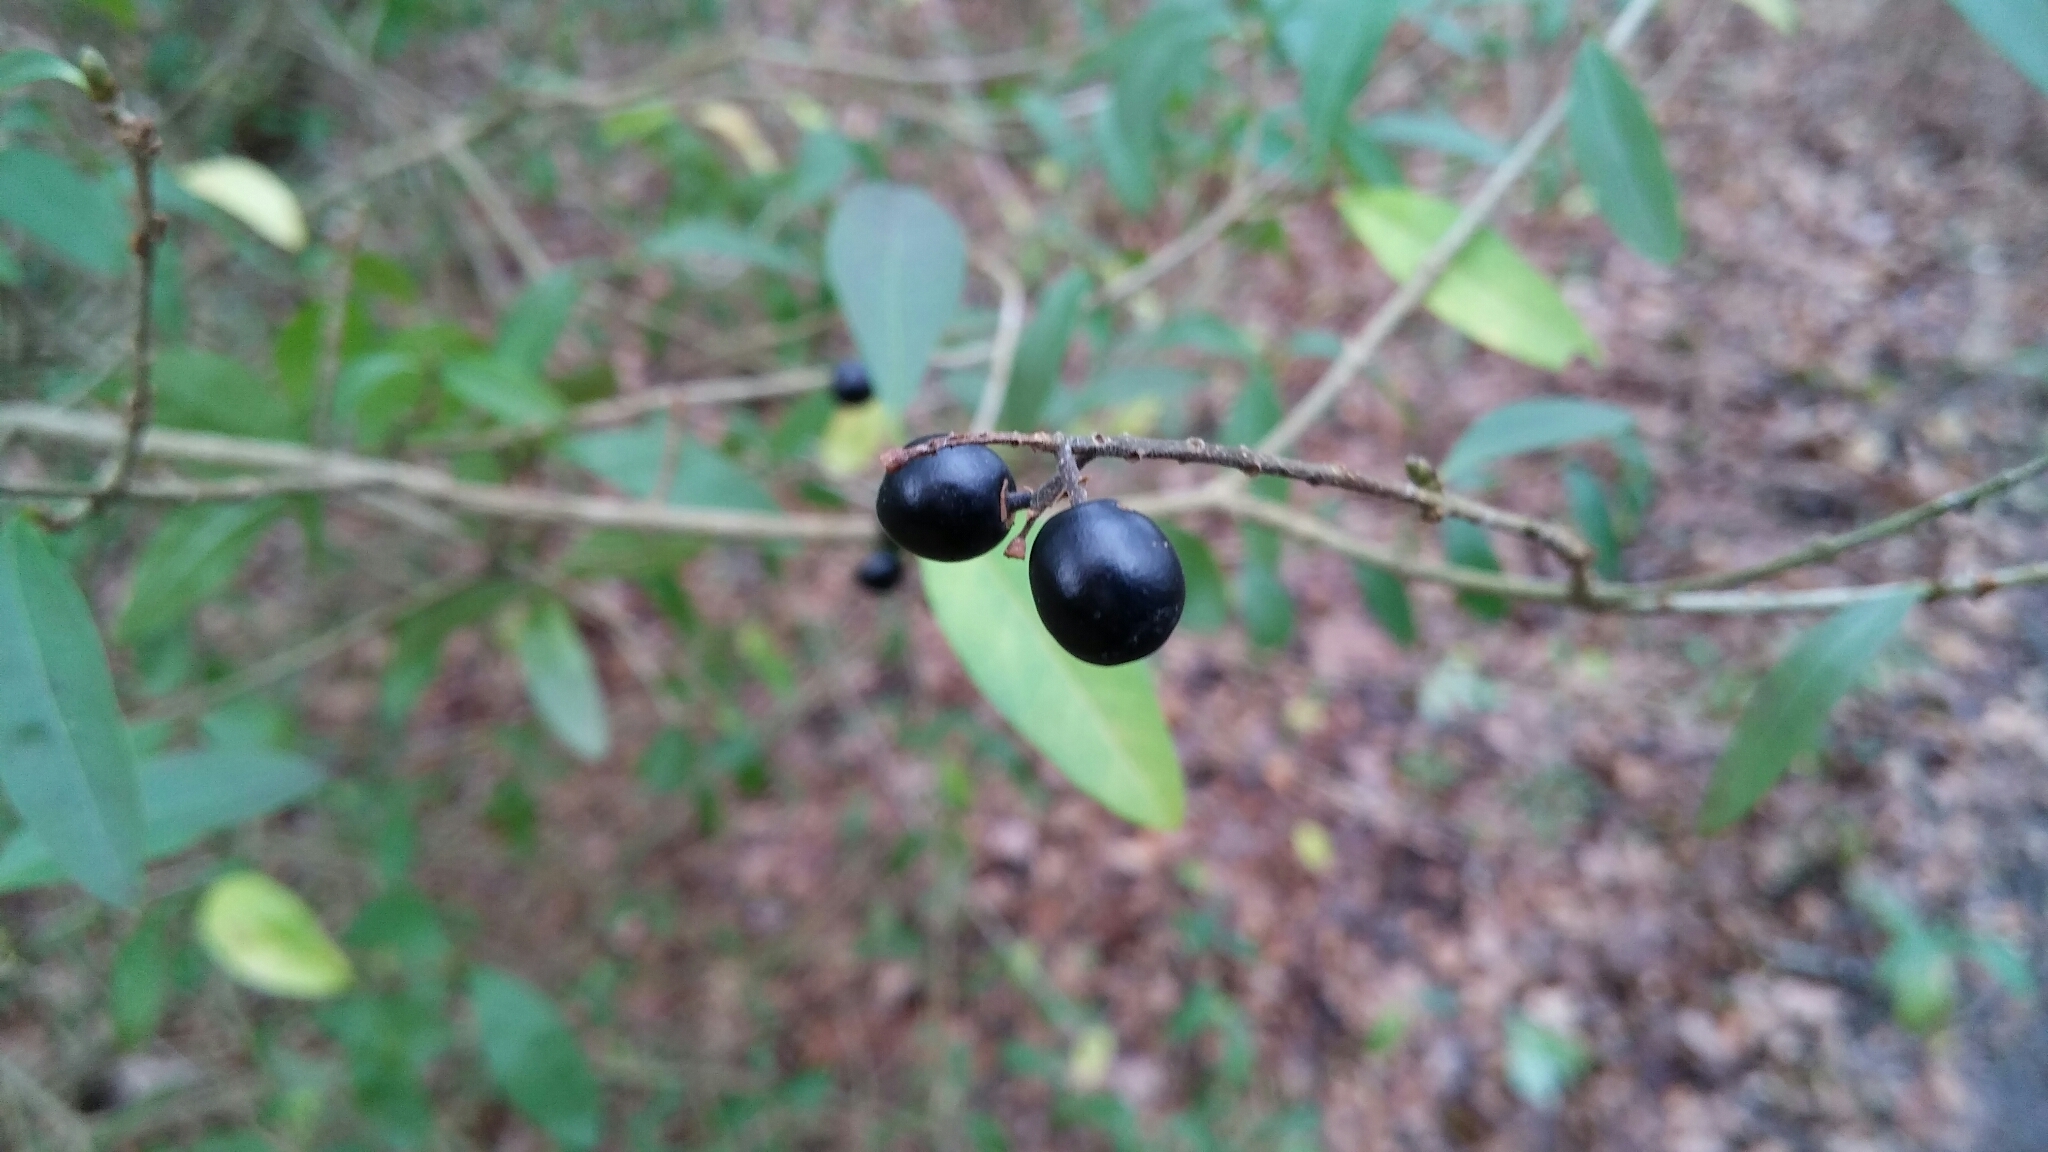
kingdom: Plantae
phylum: Tracheophyta
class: Magnoliopsida
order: Lamiales
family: Oleaceae
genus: Ligustrum
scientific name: Ligustrum vulgare
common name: Wild privet
